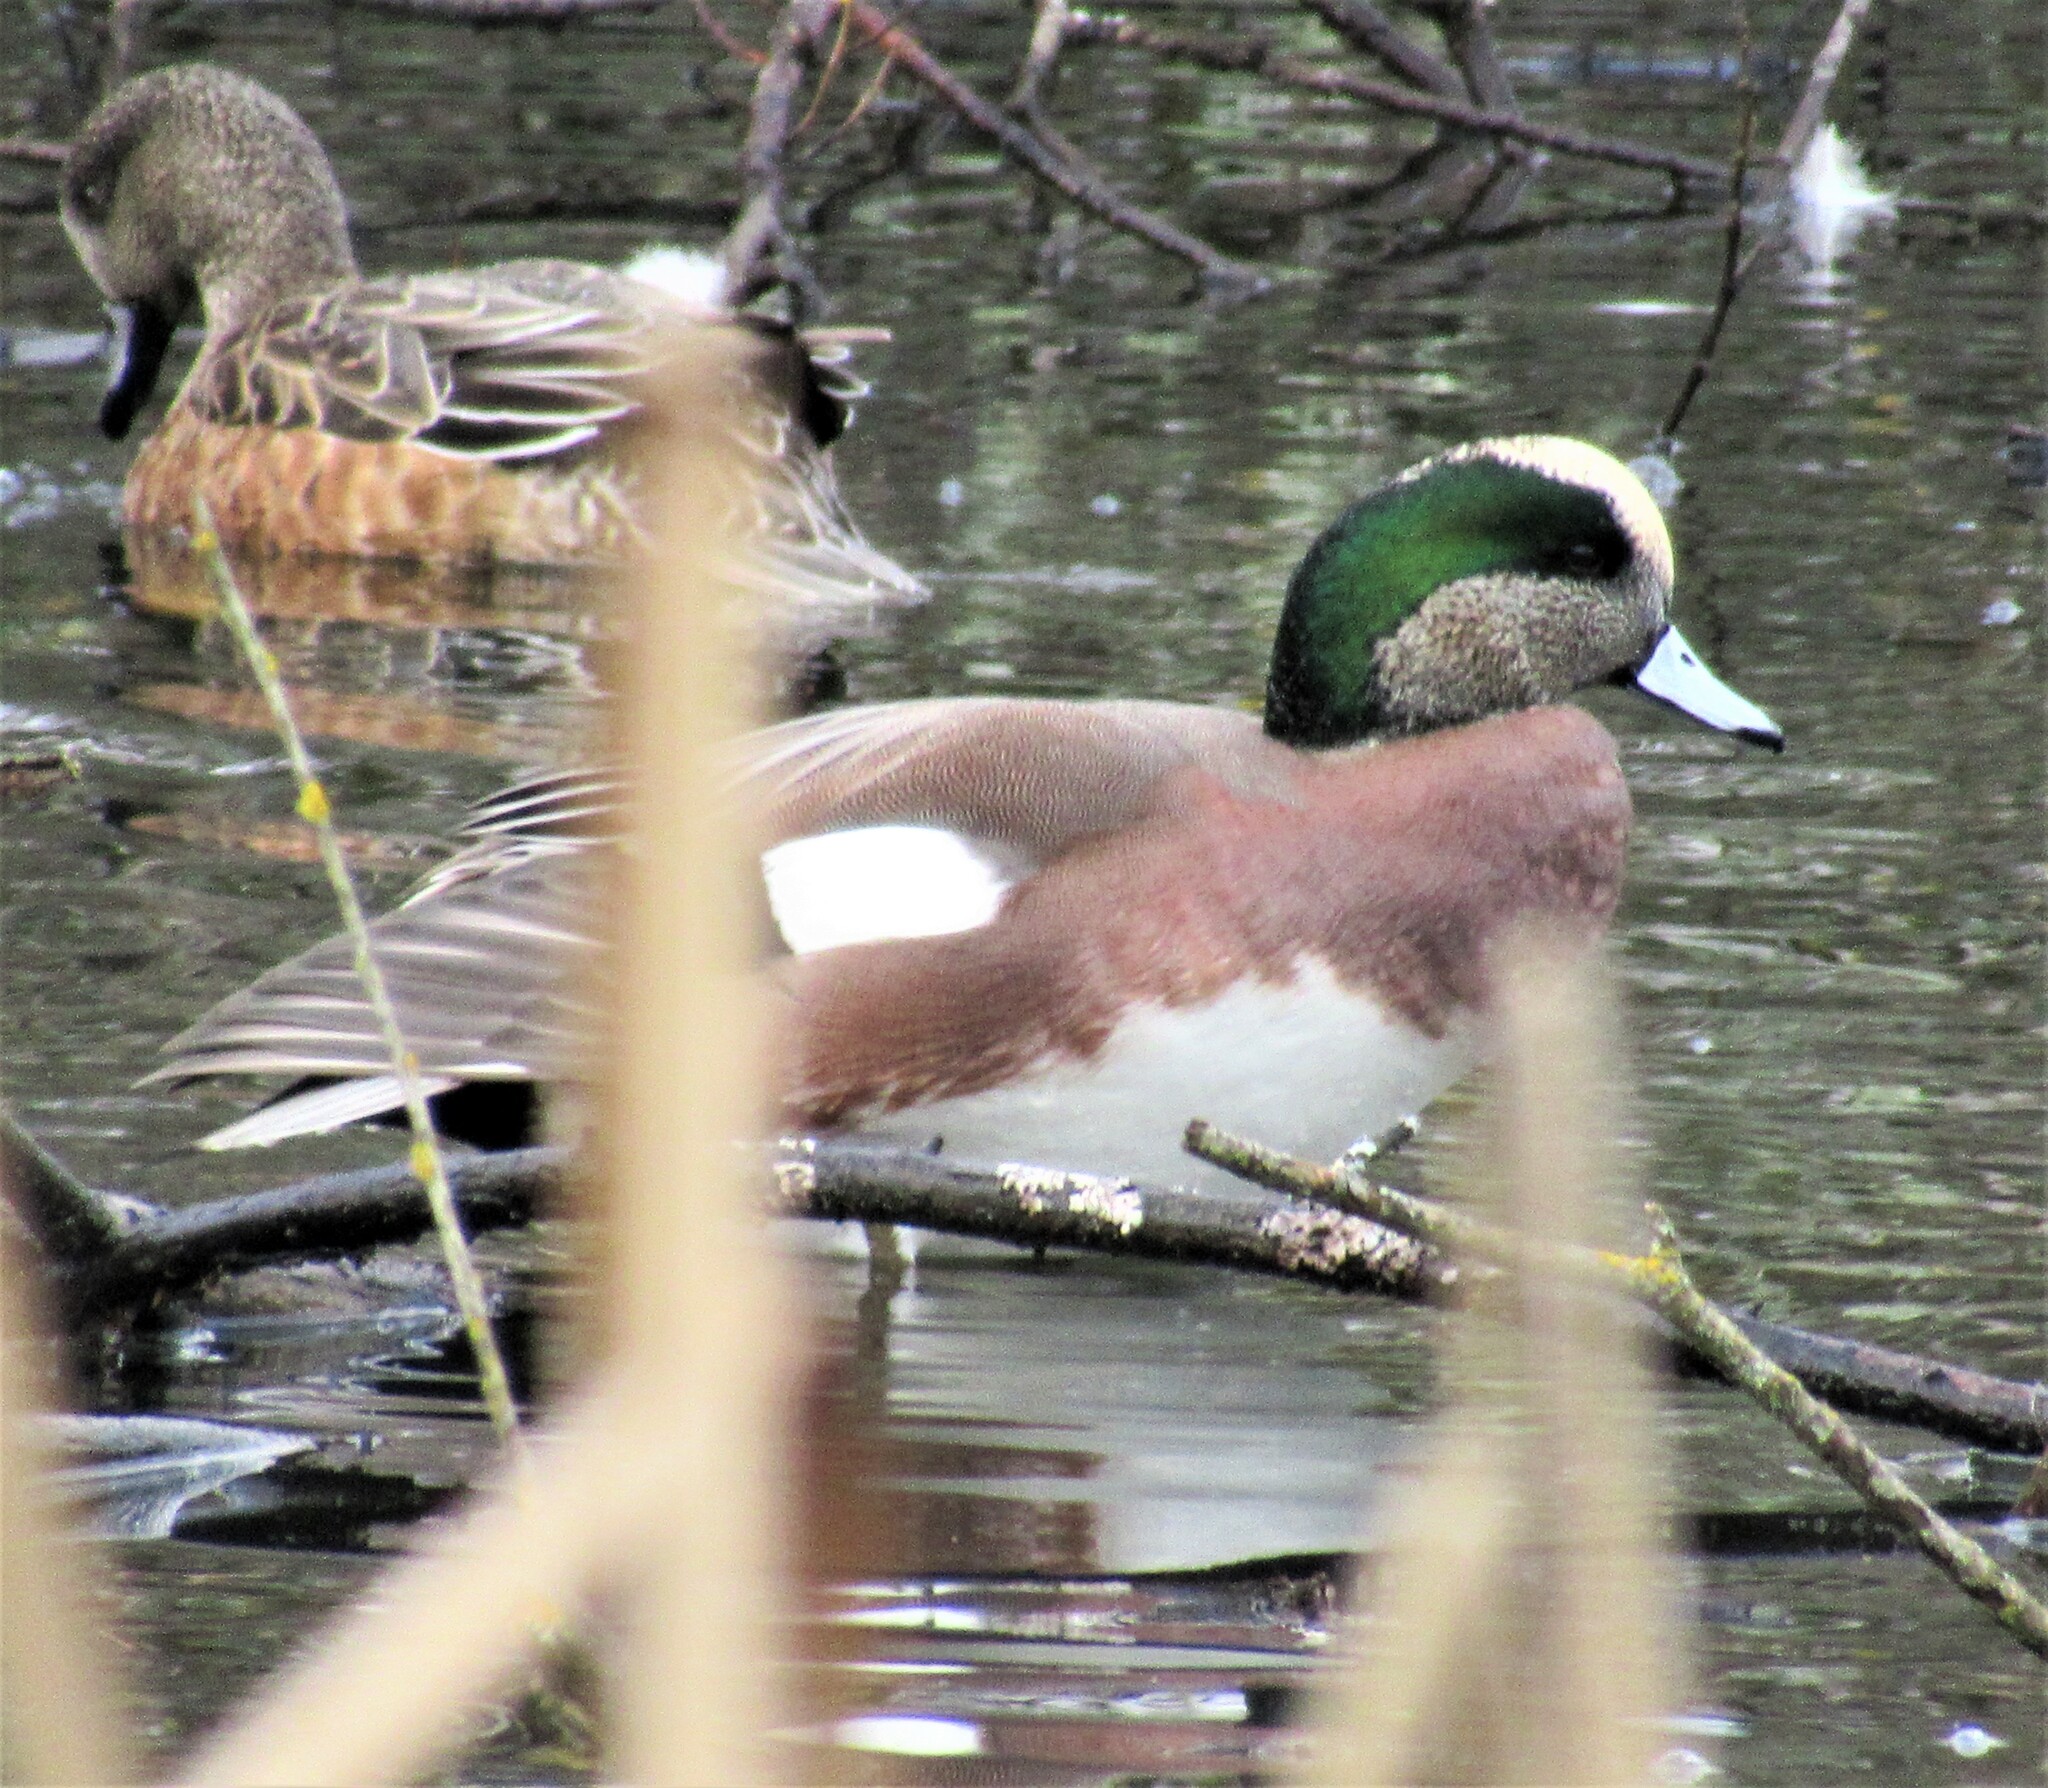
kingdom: Animalia
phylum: Chordata
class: Aves
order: Anseriformes
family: Anatidae
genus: Mareca
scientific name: Mareca americana
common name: American wigeon
